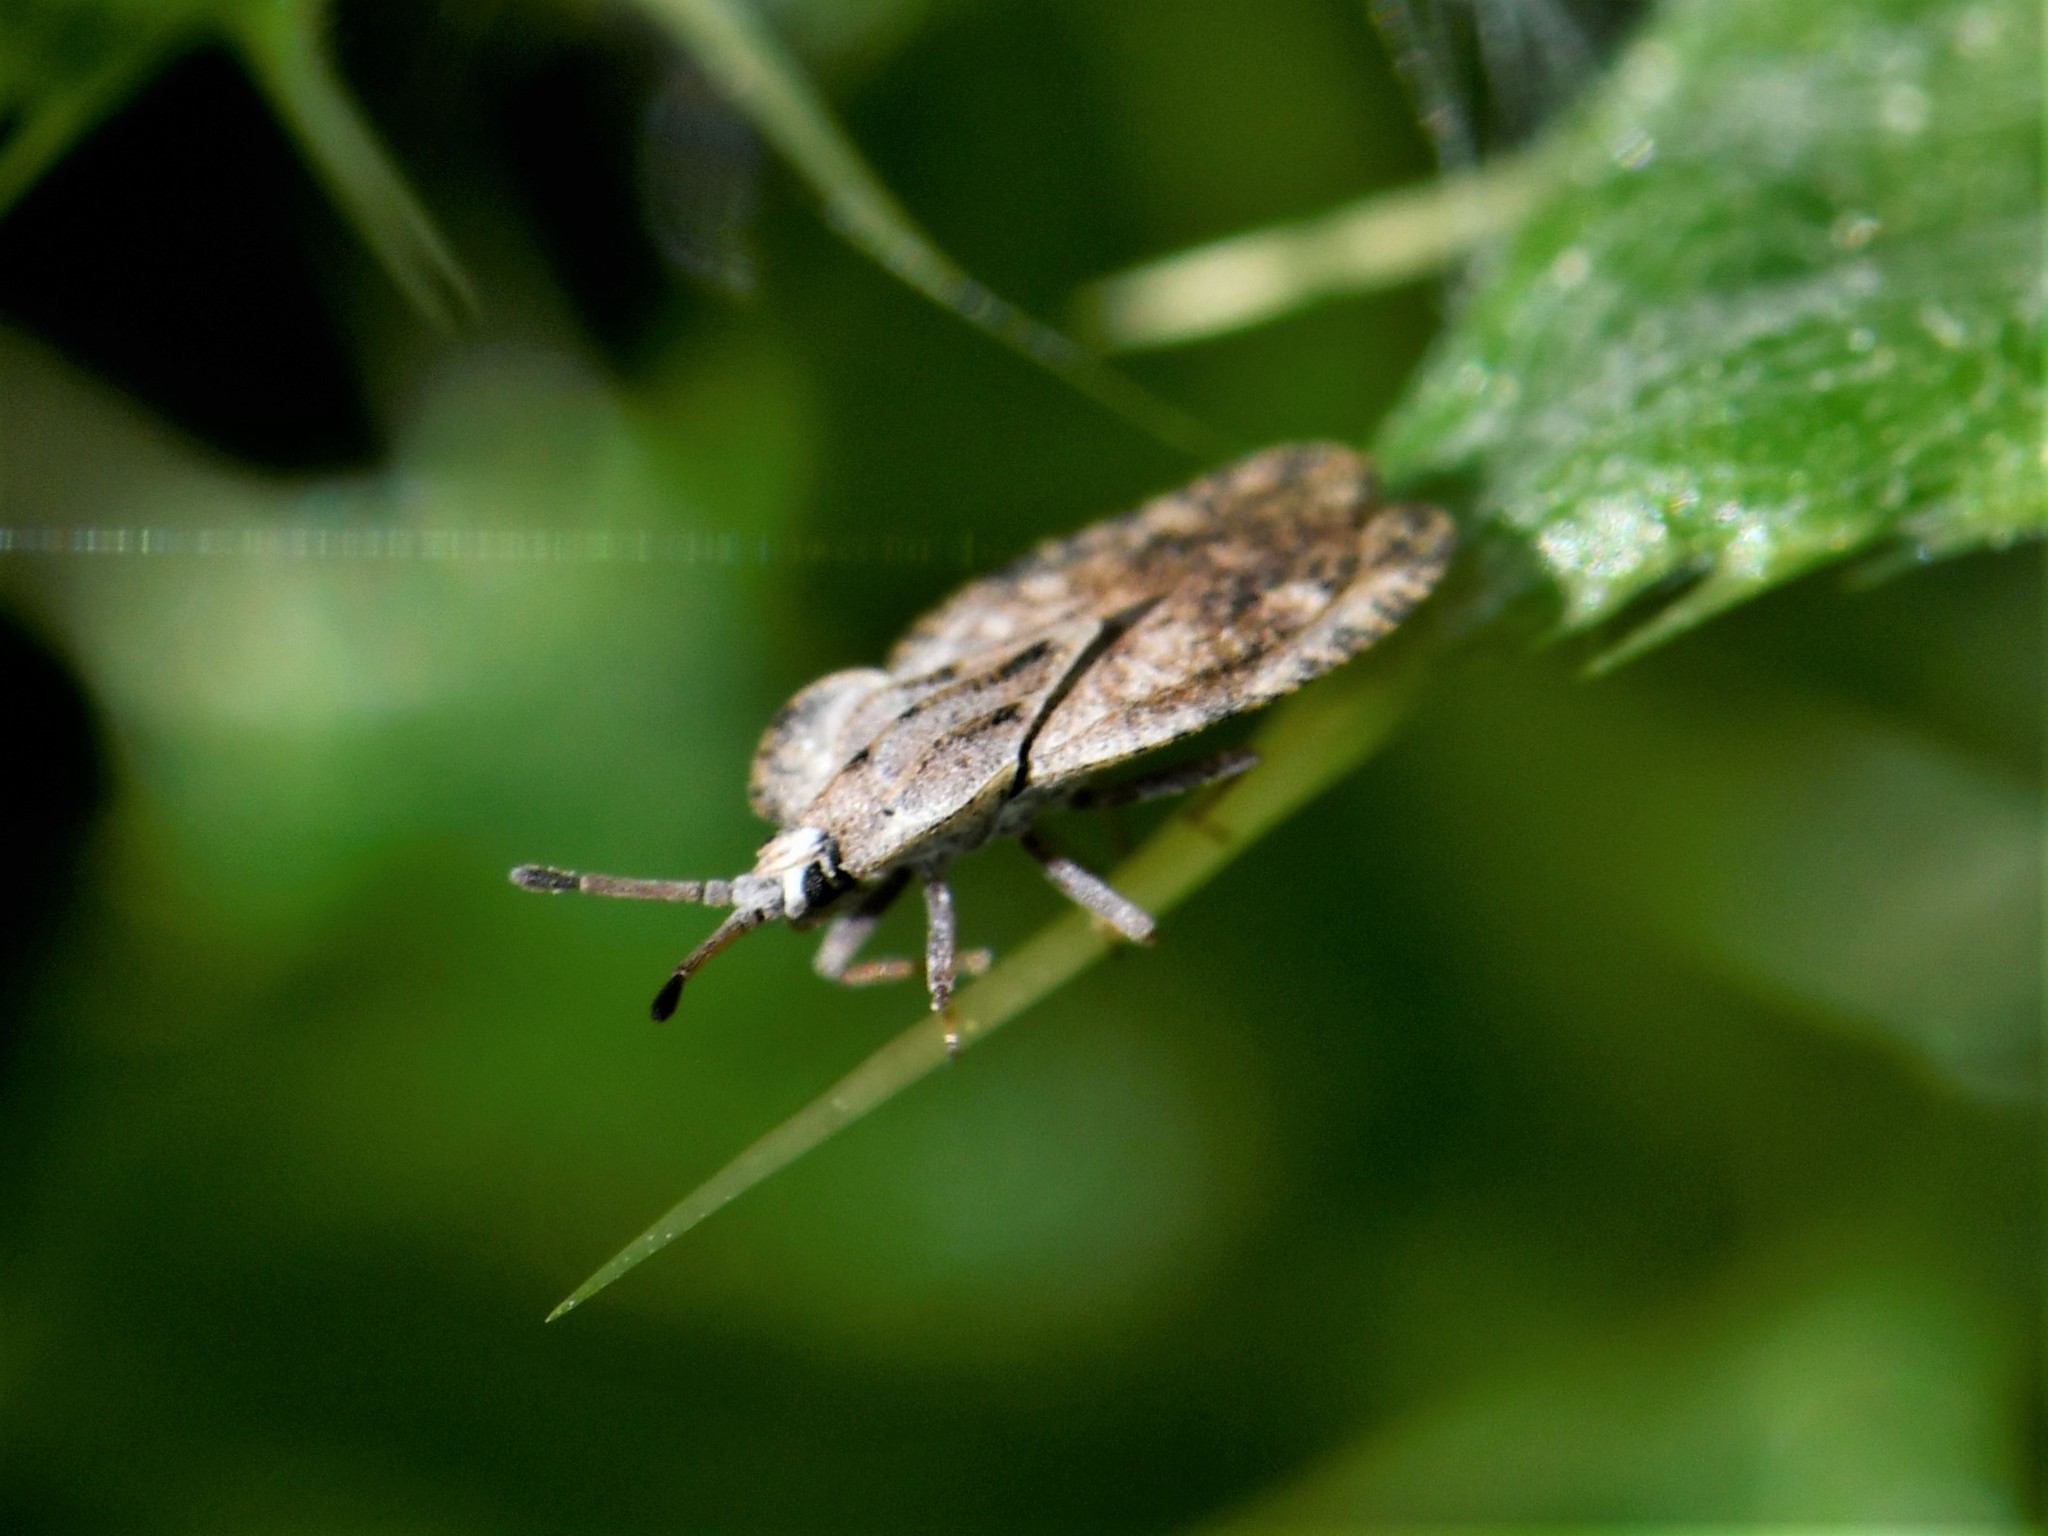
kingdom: Animalia
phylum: Arthropoda
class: Insecta
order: Hemiptera
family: Tingidae
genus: Tingis
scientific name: Tingis ampliata
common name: Creeping thistle lacebug
